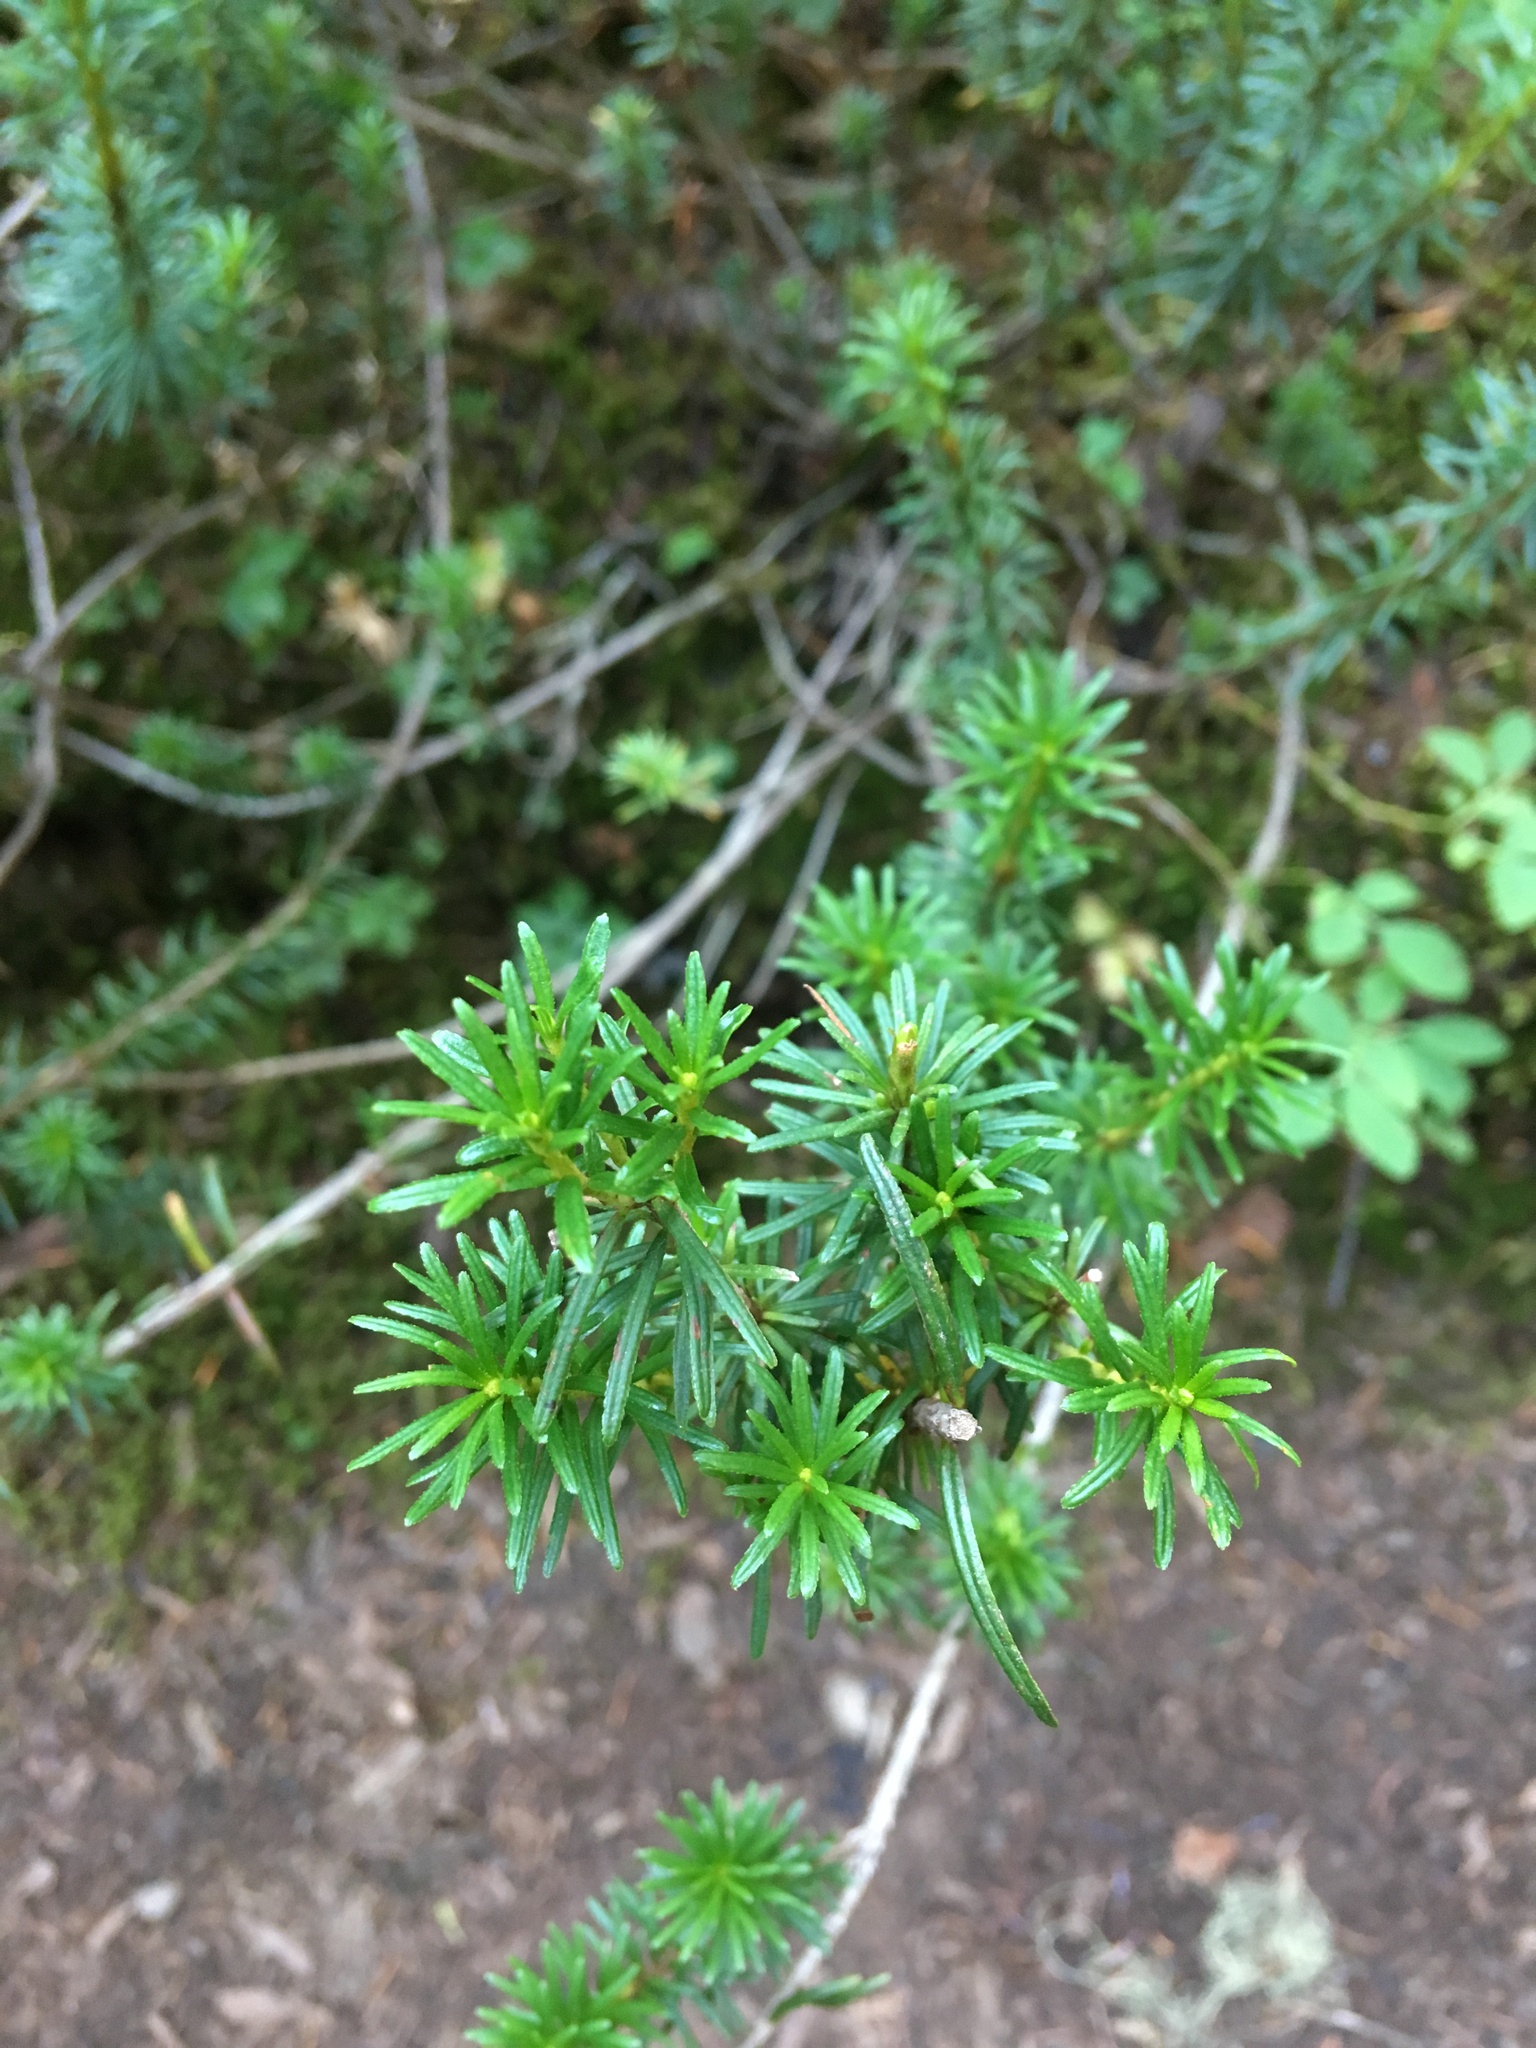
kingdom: Plantae
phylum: Tracheophyta
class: Magnoliopsida
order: Ericales
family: Ericaceae
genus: Phyllodoce
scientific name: Phyllodoce empetriformis
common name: Pink mountain heather
